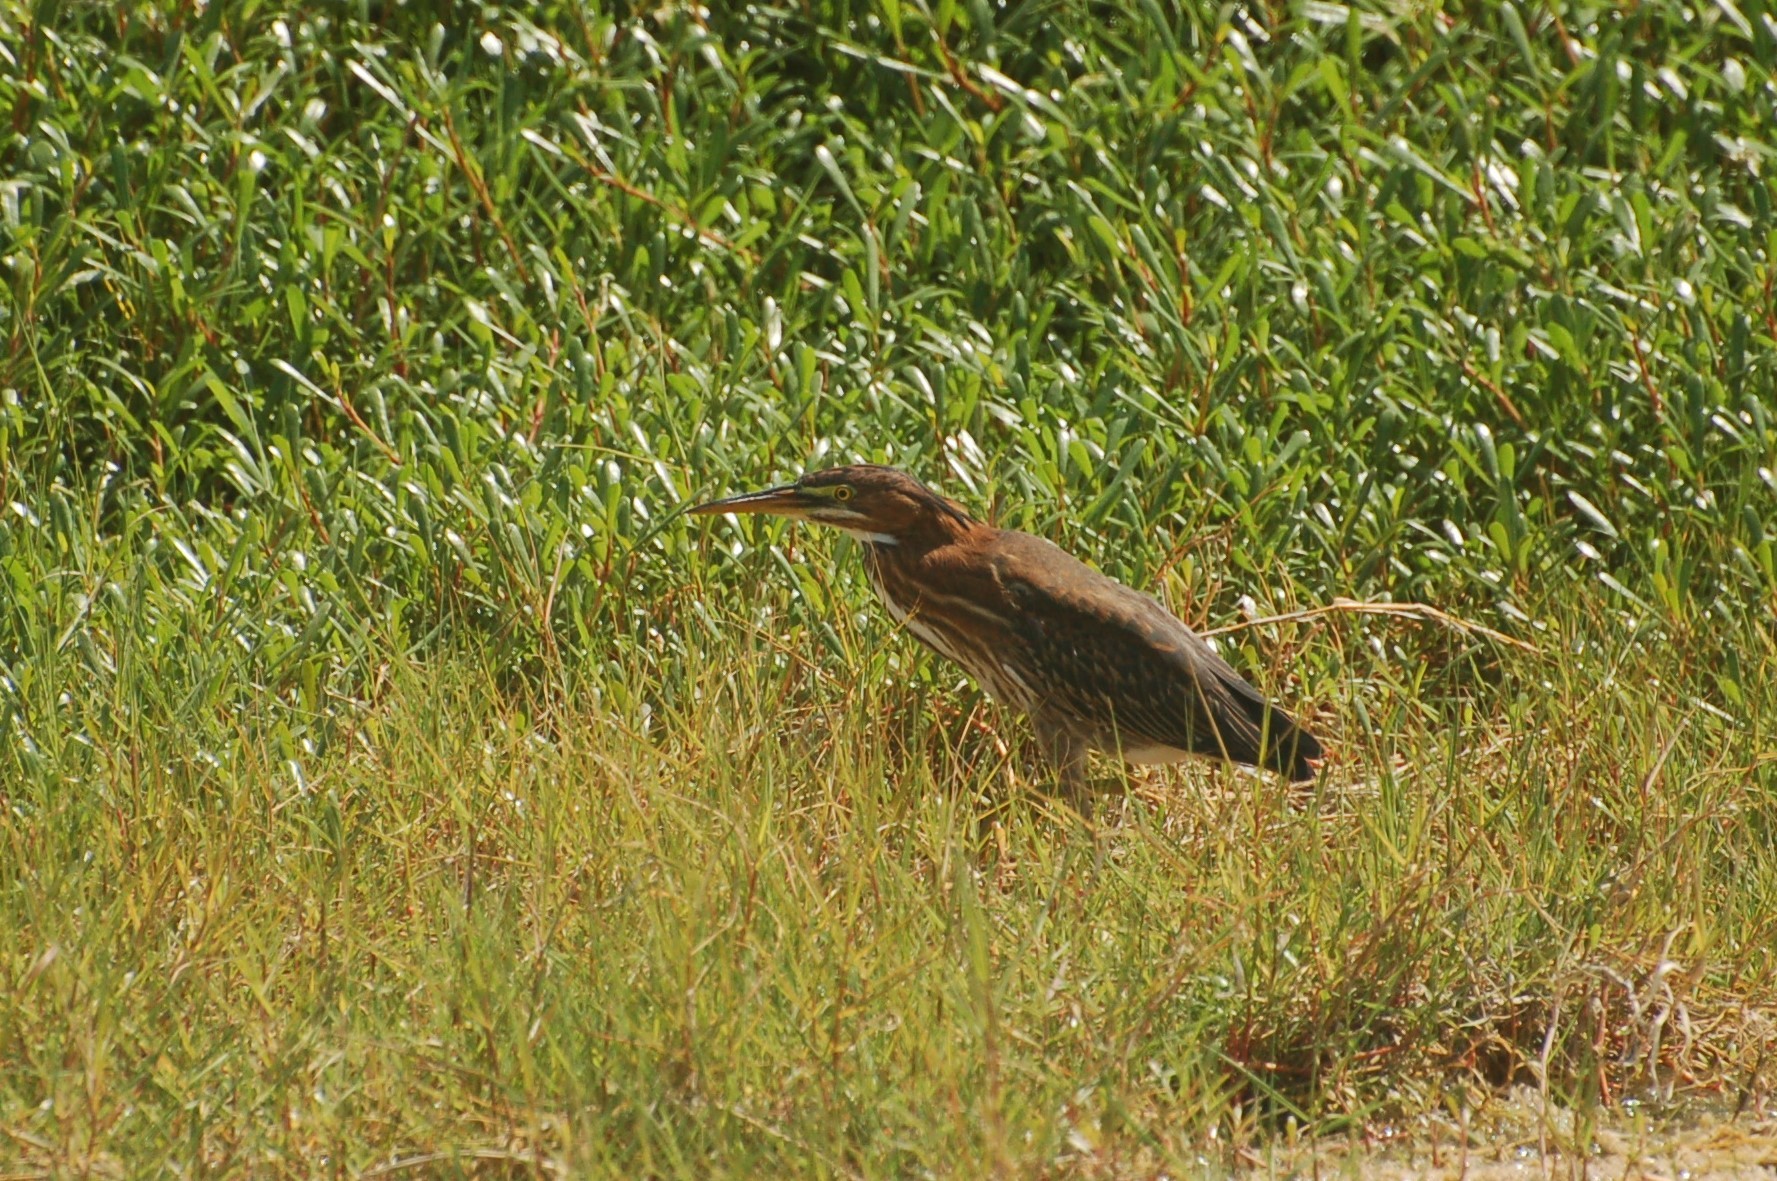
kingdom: Animalia
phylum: Chordata
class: Aves
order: Pelecaniformes
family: Ardeidae
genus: Butorides
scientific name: Butorides virescens
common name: Green heron
